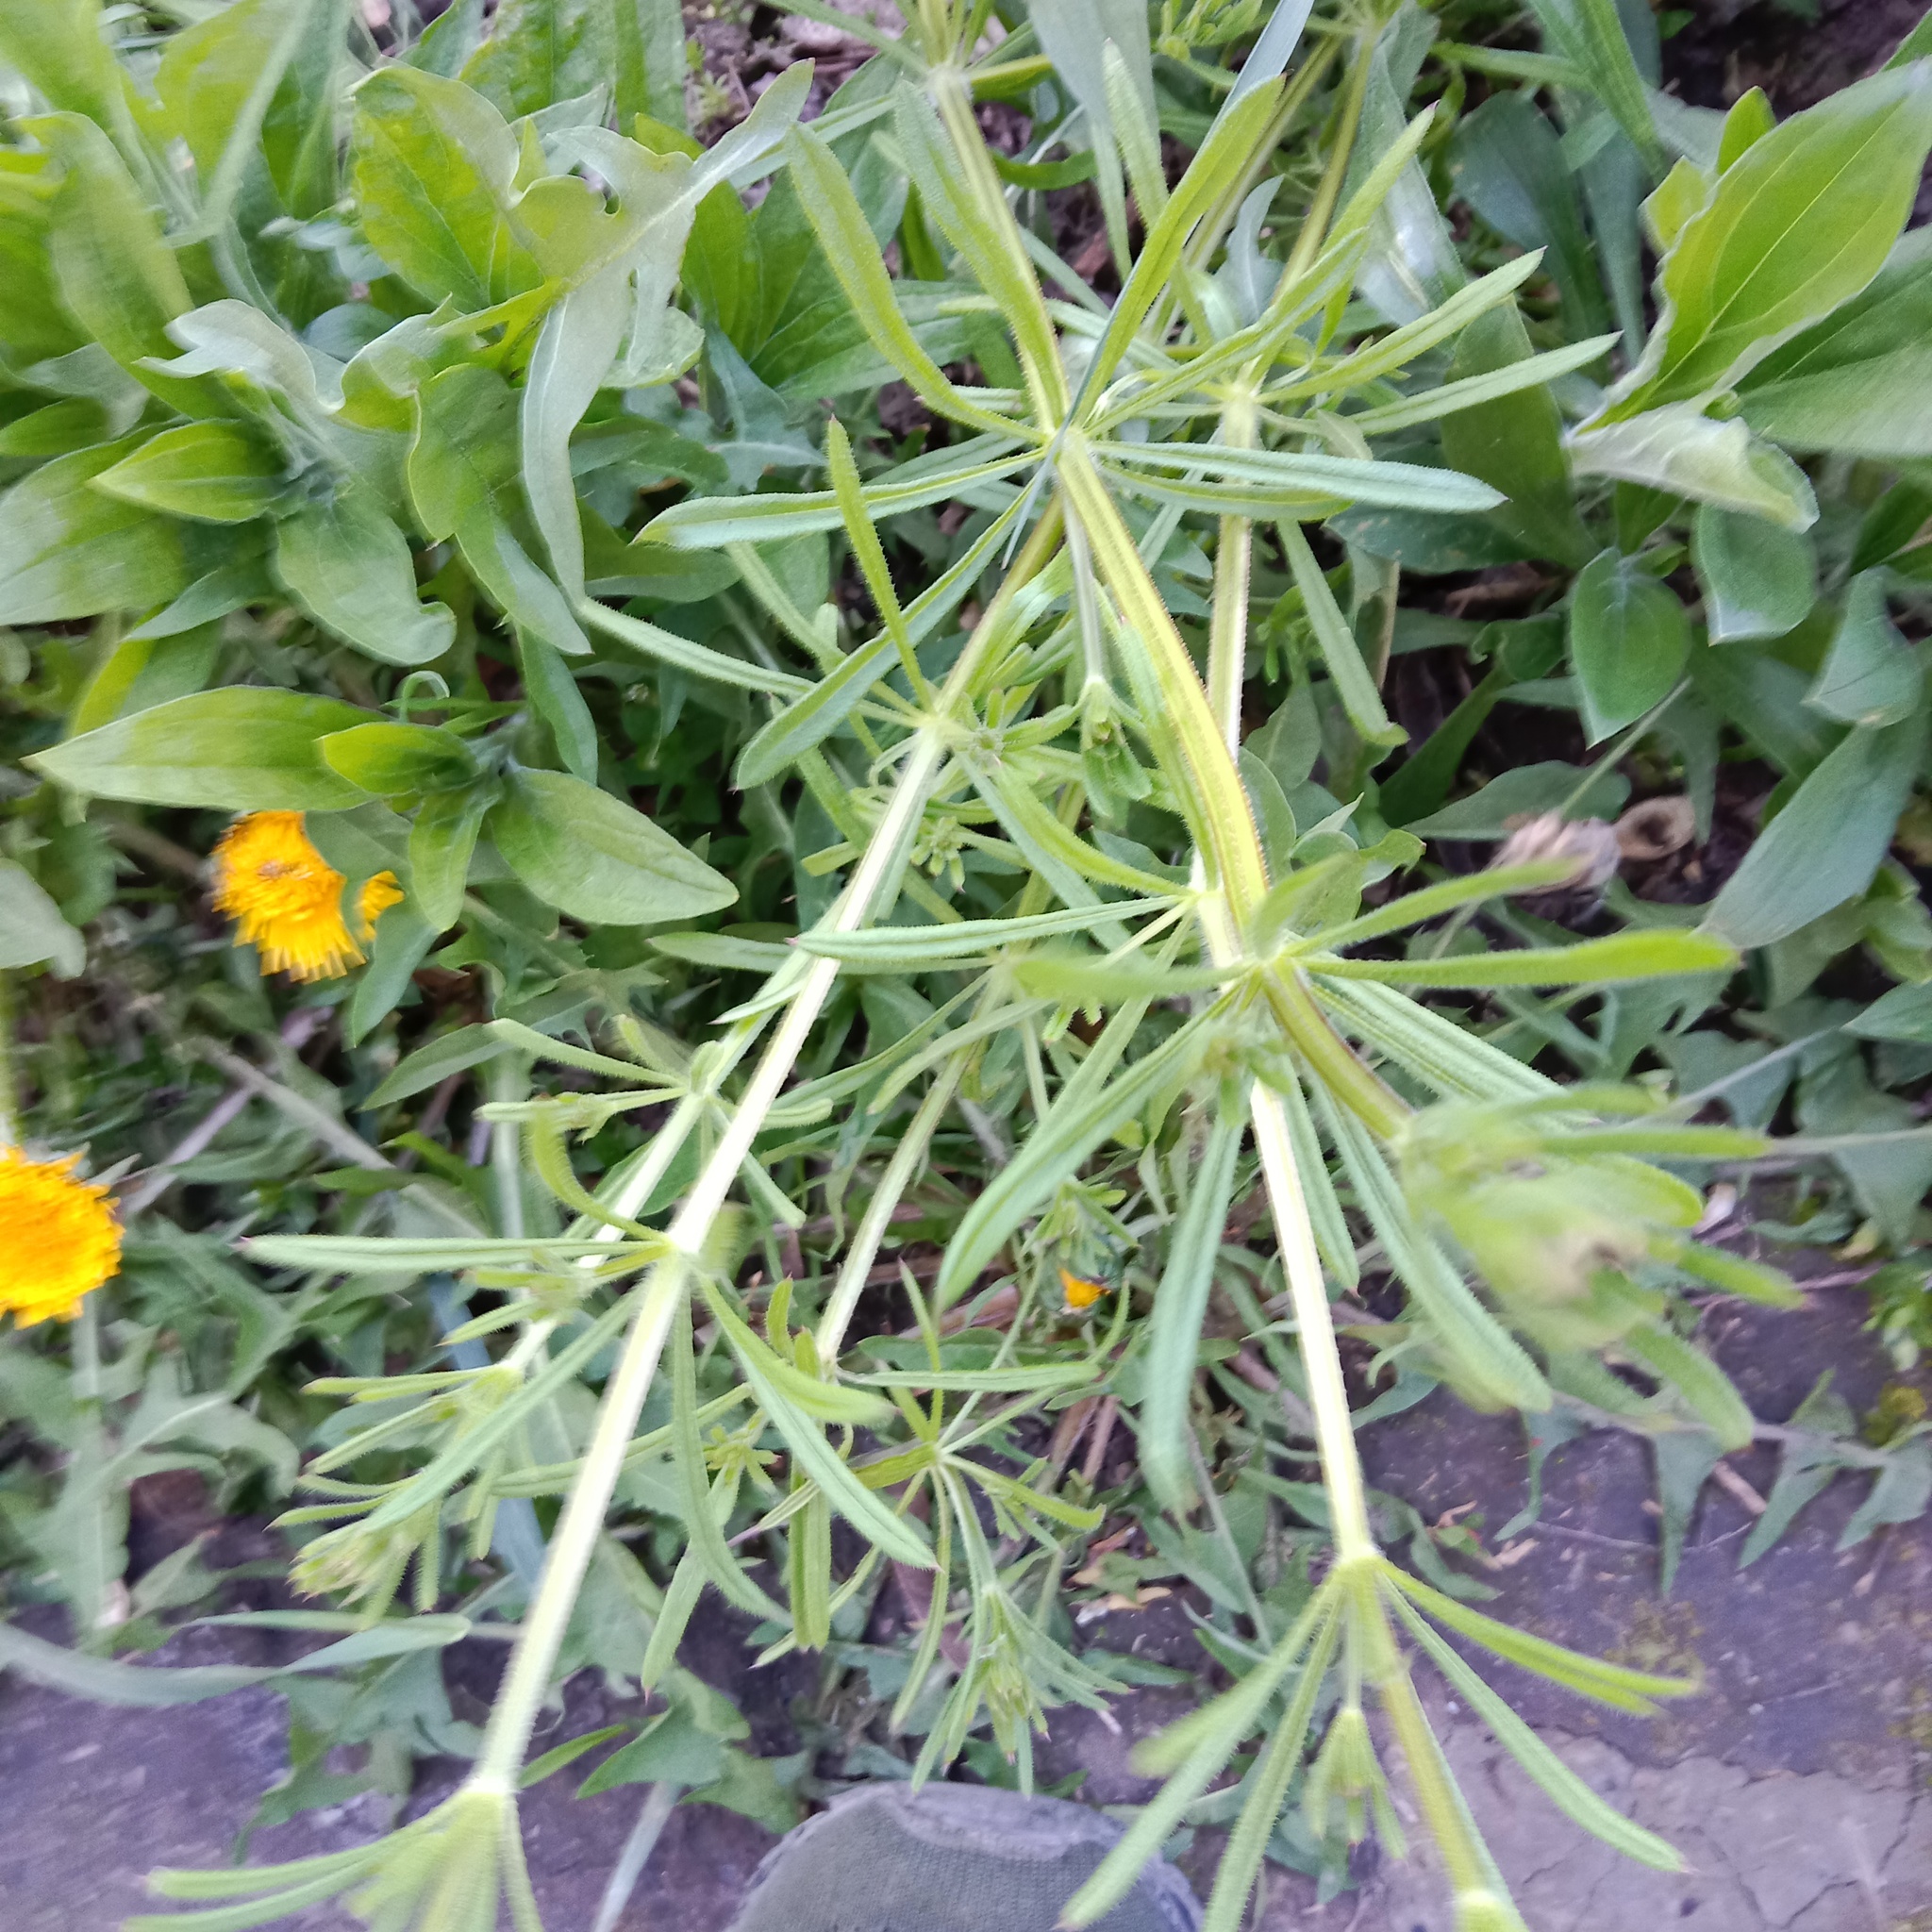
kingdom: Plantae
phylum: Tracheophyta
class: Magnoliopsida
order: Gentianales
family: Rubiaceae
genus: Galium
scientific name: Galium aparine
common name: Cleavers
